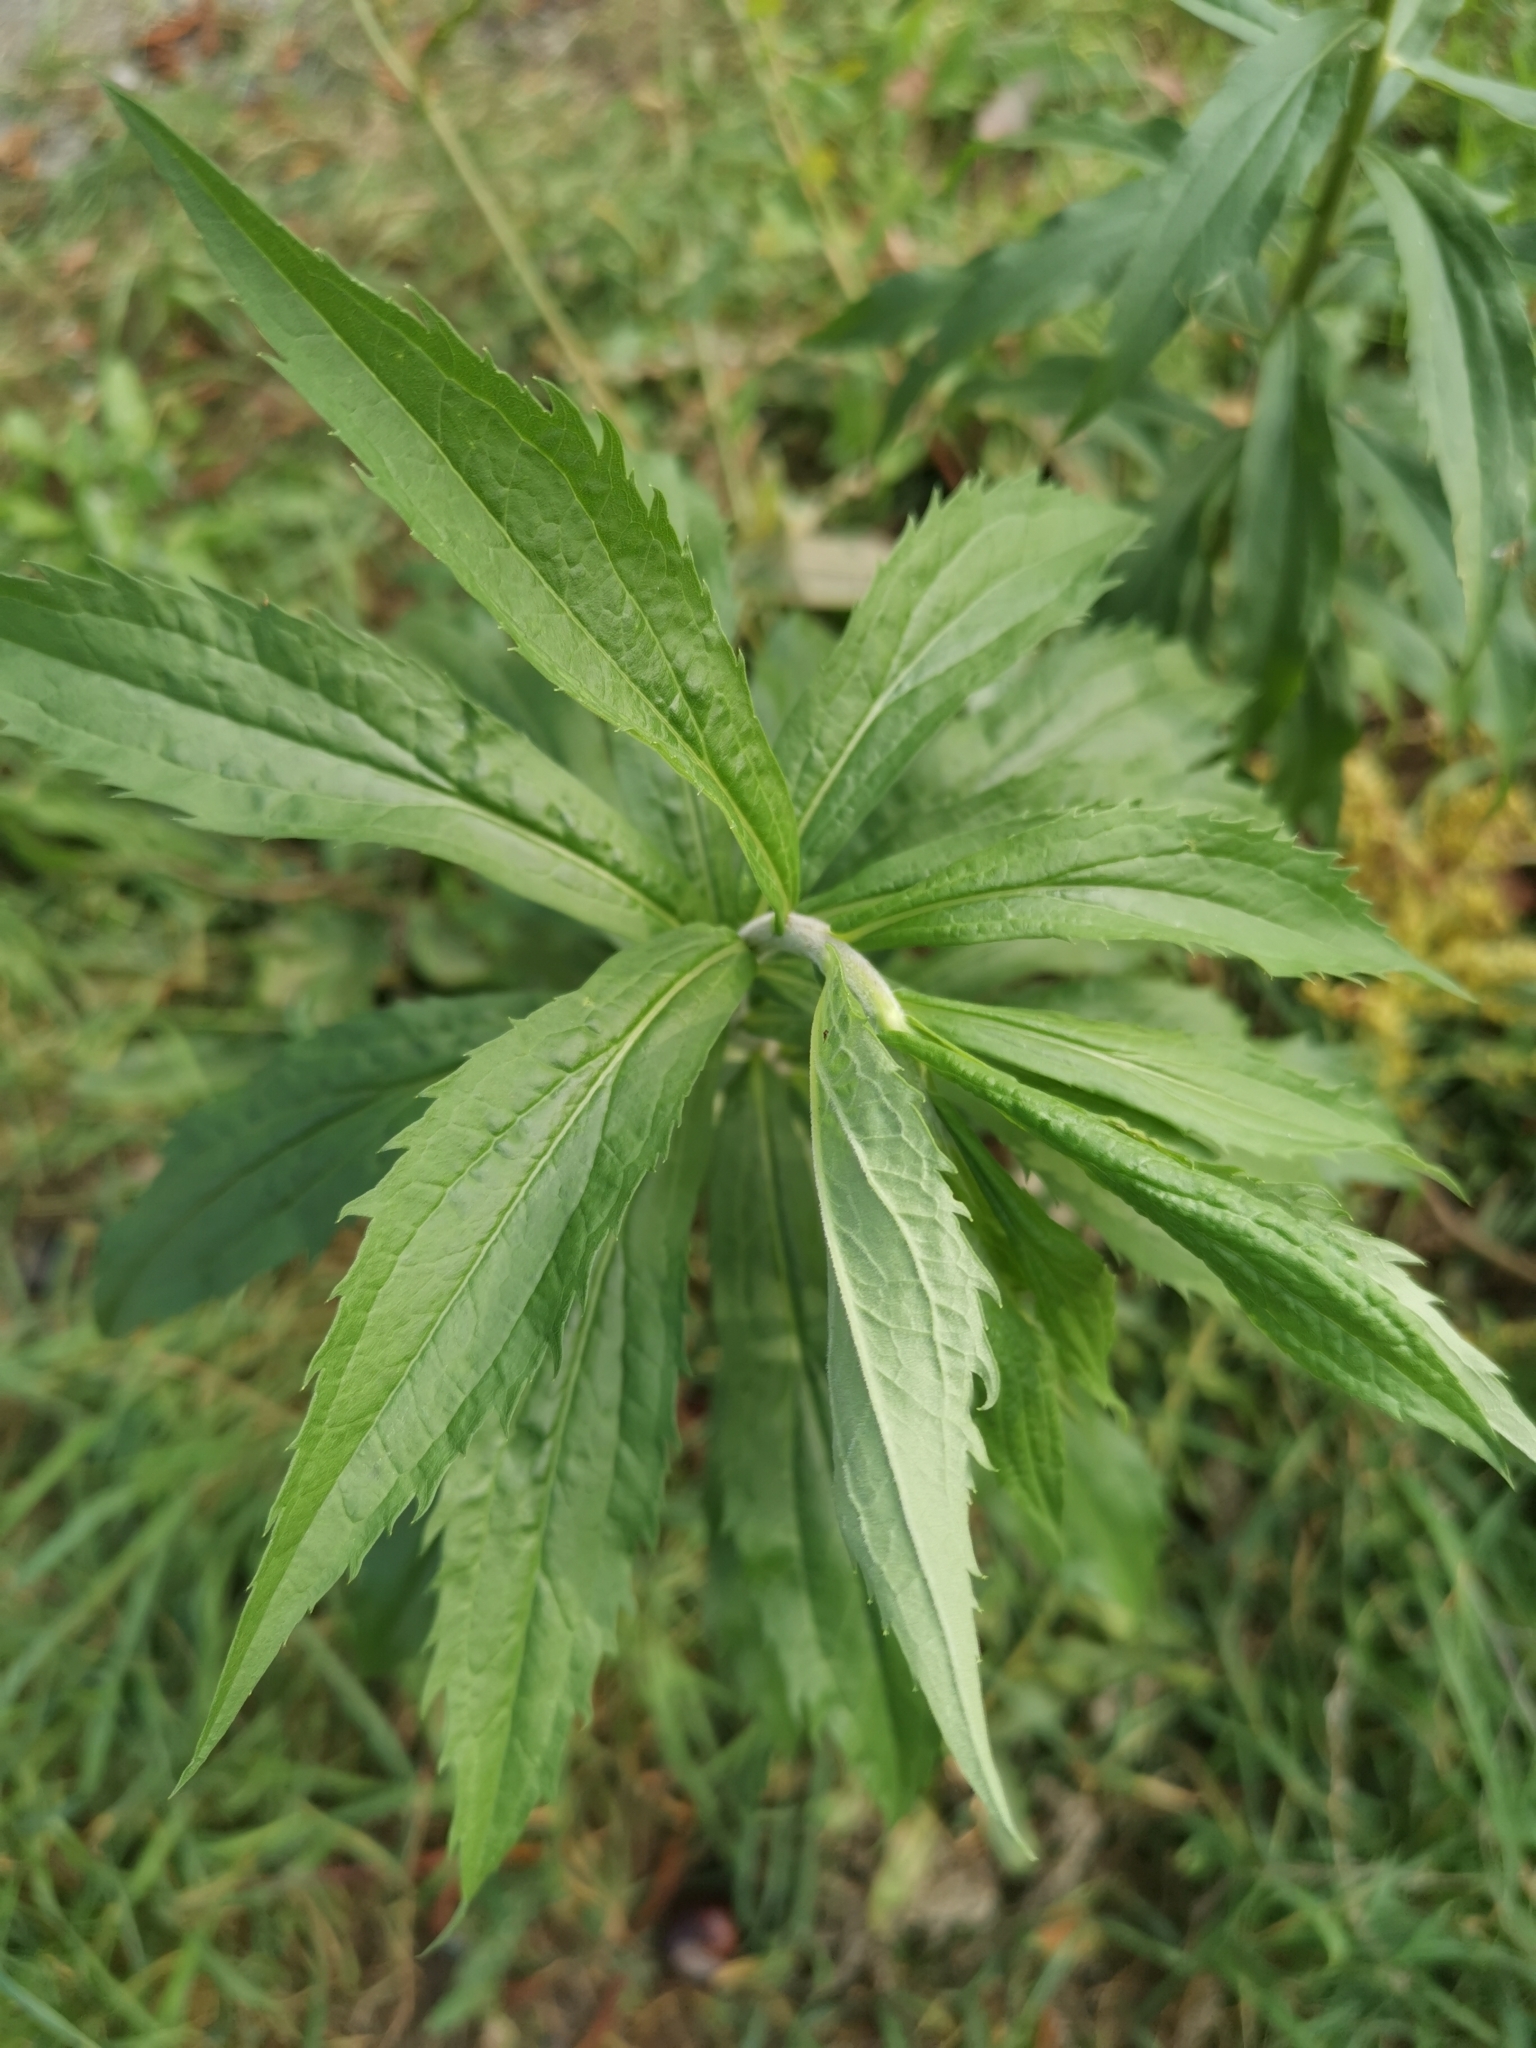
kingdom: Plantae
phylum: Tracheophyta
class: Magnoliopsida
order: Asterales
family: Asteraceae
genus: Solidago
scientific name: Solidago canadensis
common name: Canada goldenrod
